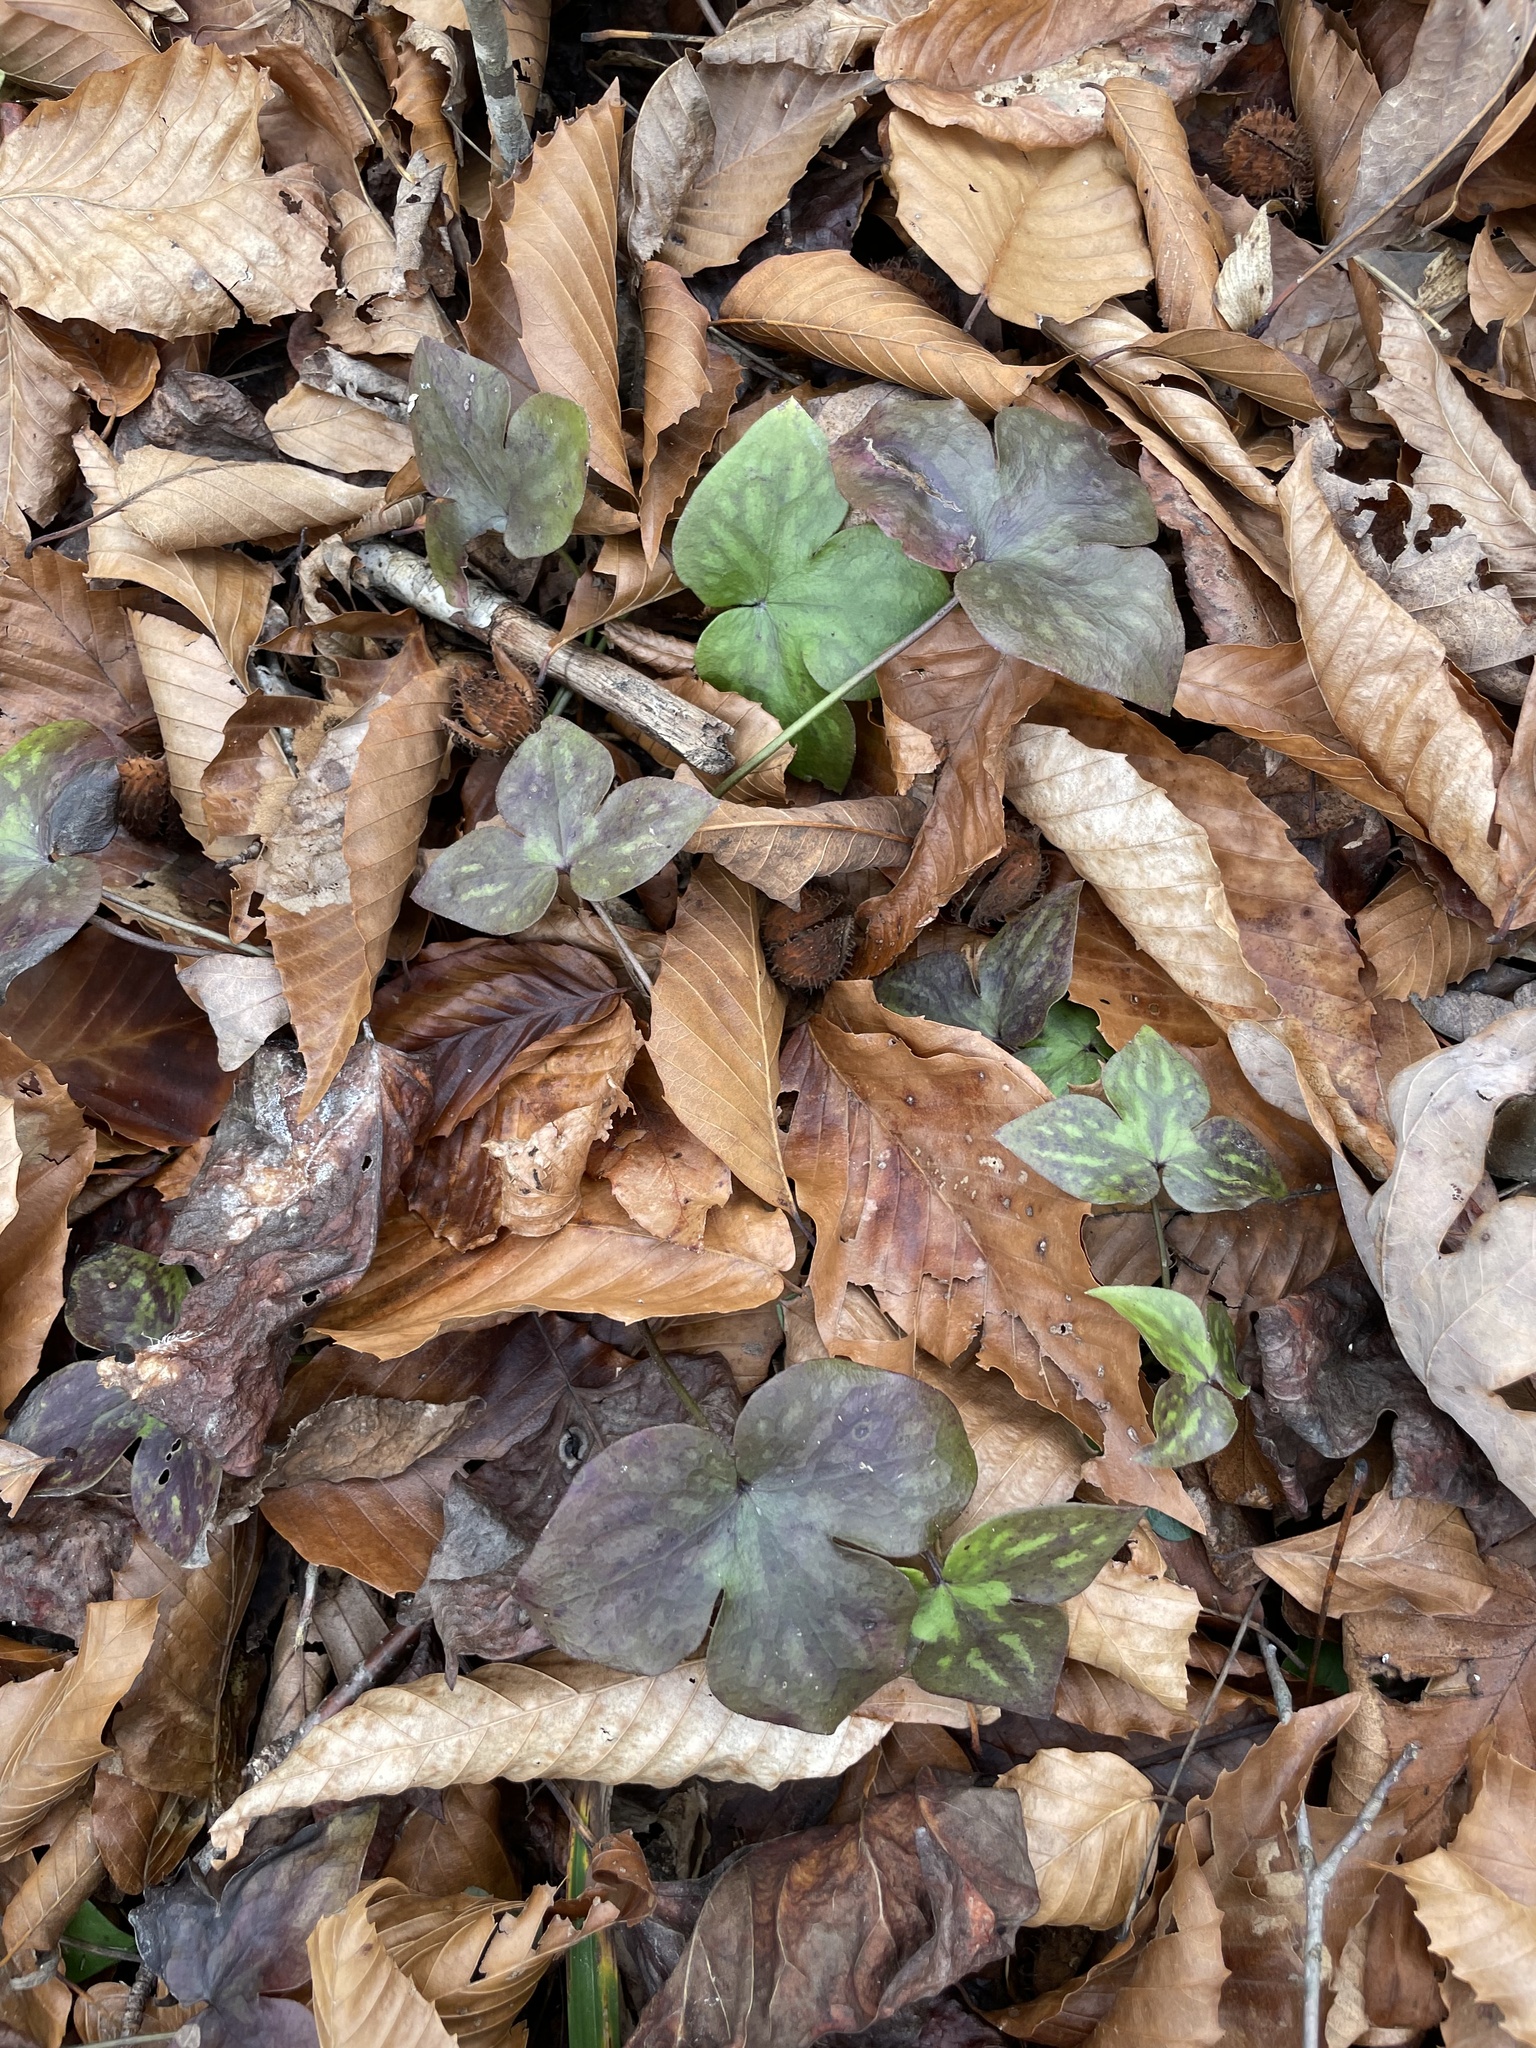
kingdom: Plantae
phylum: Tracheophyta
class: Magnoliopsida
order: Ranunculales
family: Ranunculaceae
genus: Hepatica
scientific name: Hepatica acutiloba
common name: Sharp-lobed hepatica
